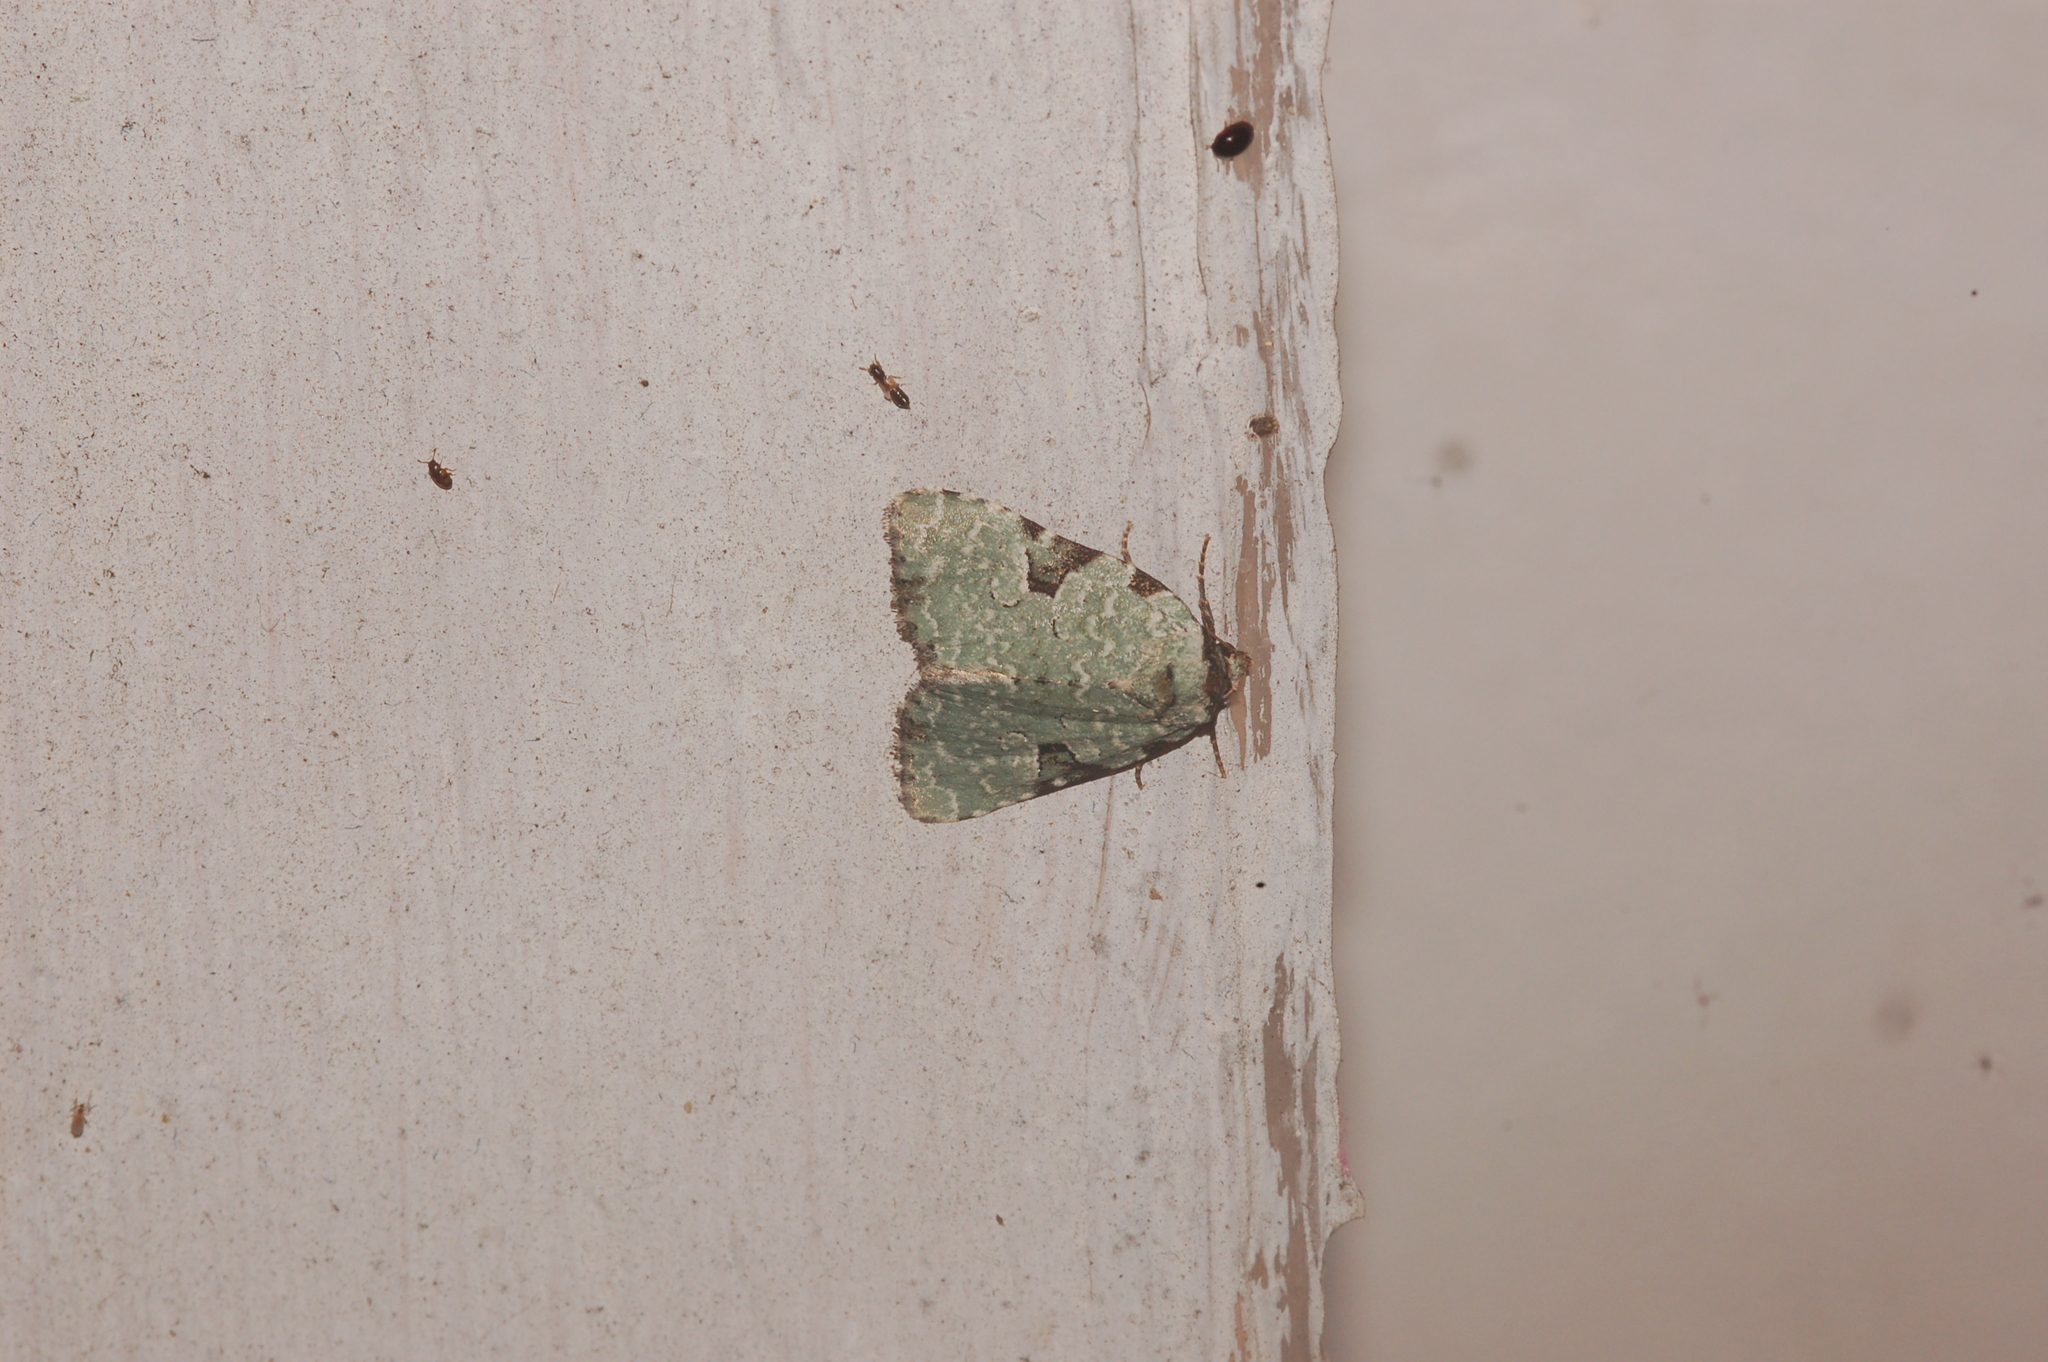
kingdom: Animalia
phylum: Arthropoda
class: Insecta
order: Lepidoptera
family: Noctuidae
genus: Leuconycta
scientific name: Leuconycta diphteroides
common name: Green leuconycta moth
